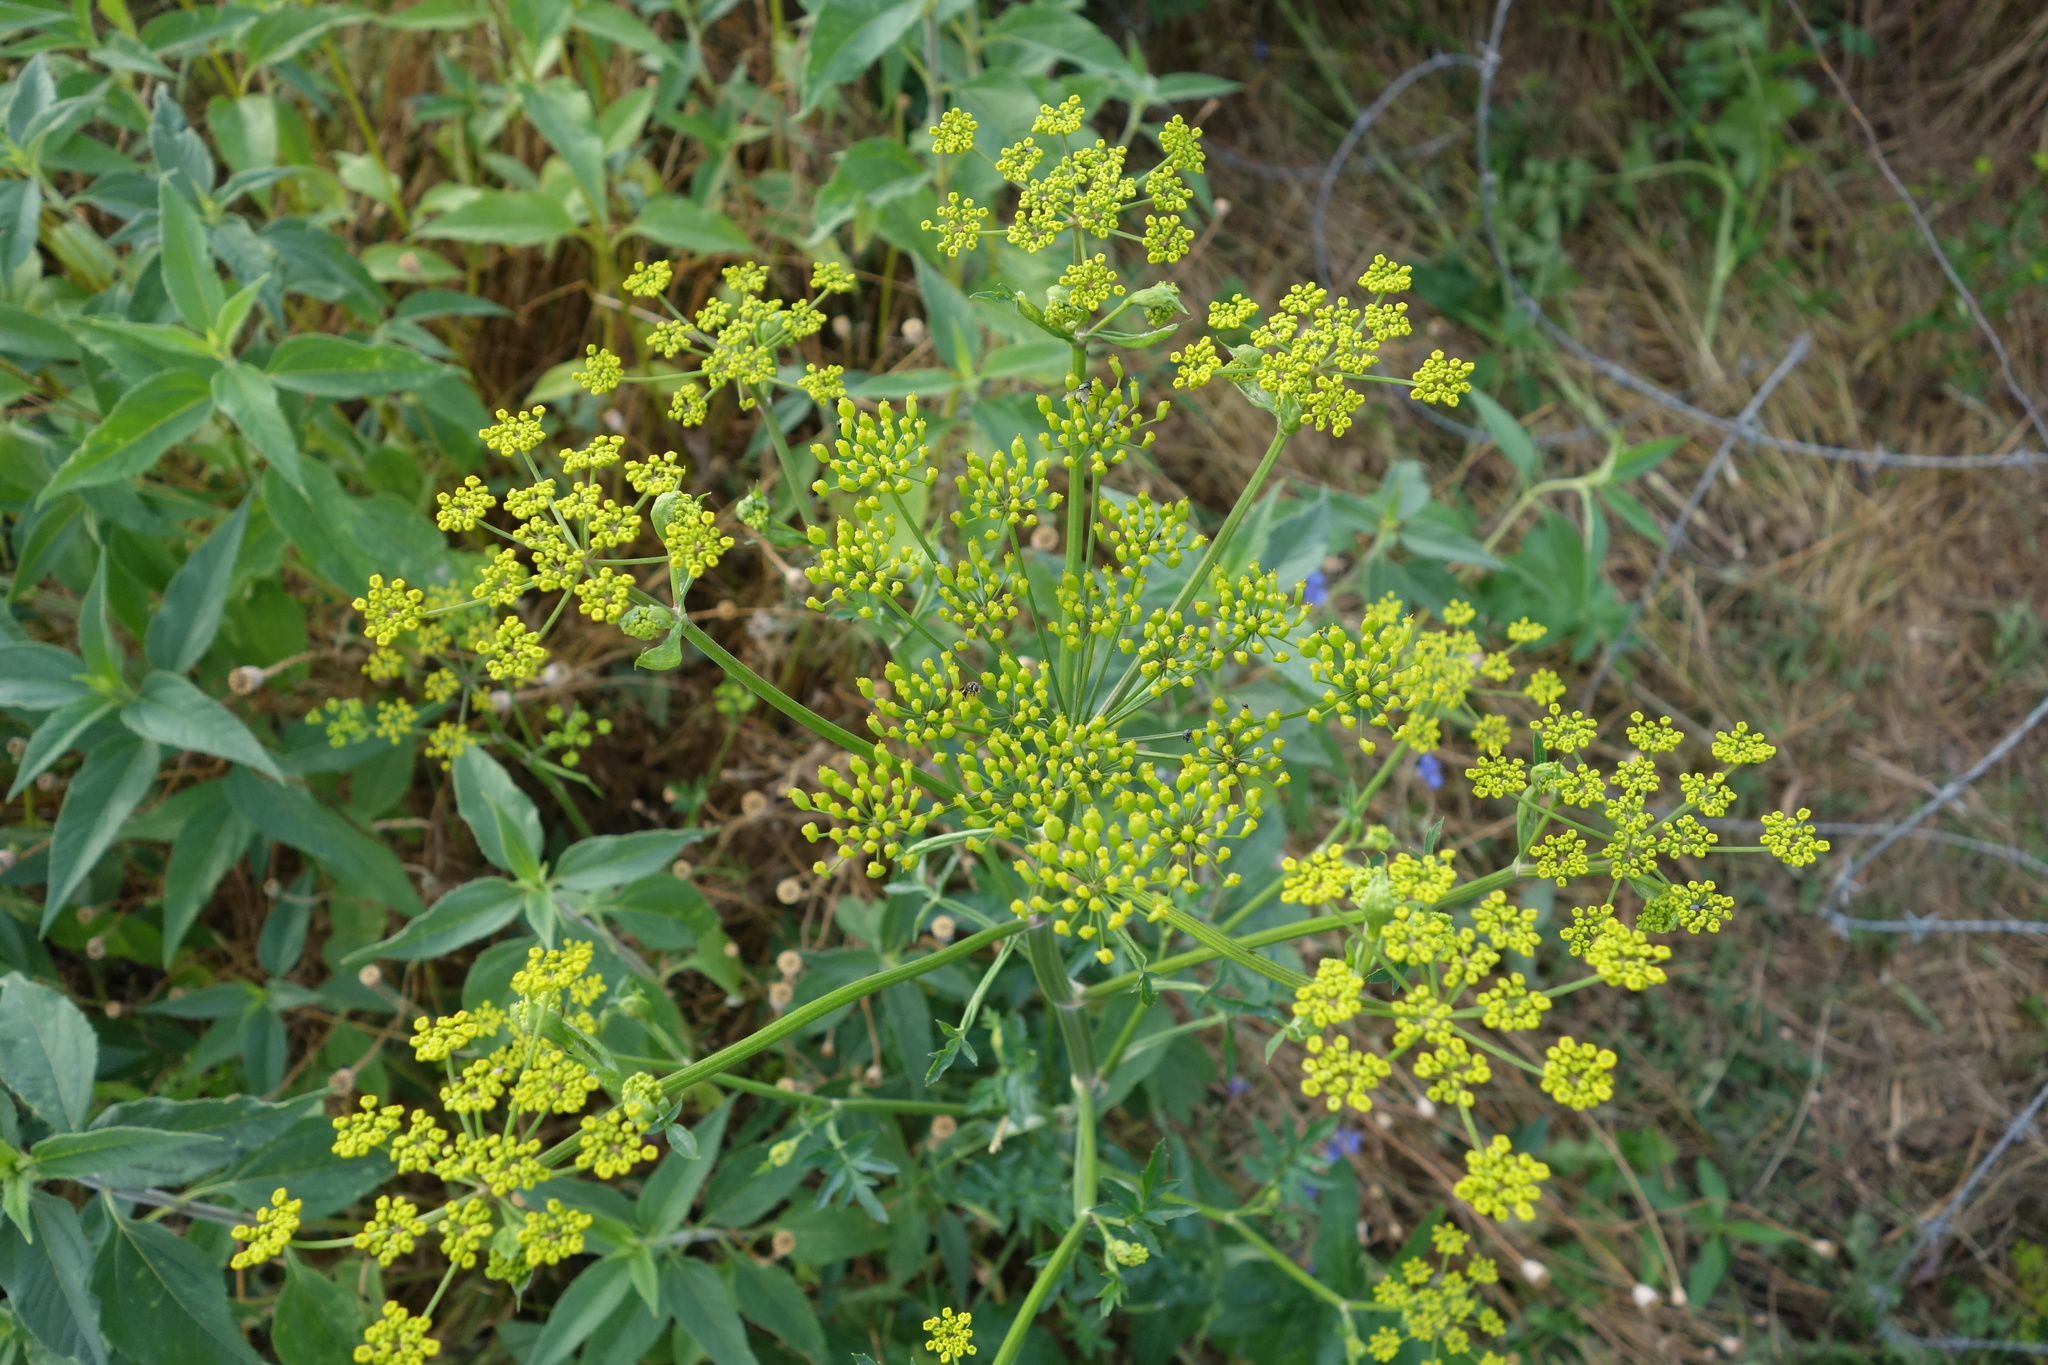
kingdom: Plantae
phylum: Tracheophyta
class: Magnoliopsida
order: Apiales
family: Apiaceae
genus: Pastinaca
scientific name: Pastinaca sativa
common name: Wild parsnip
